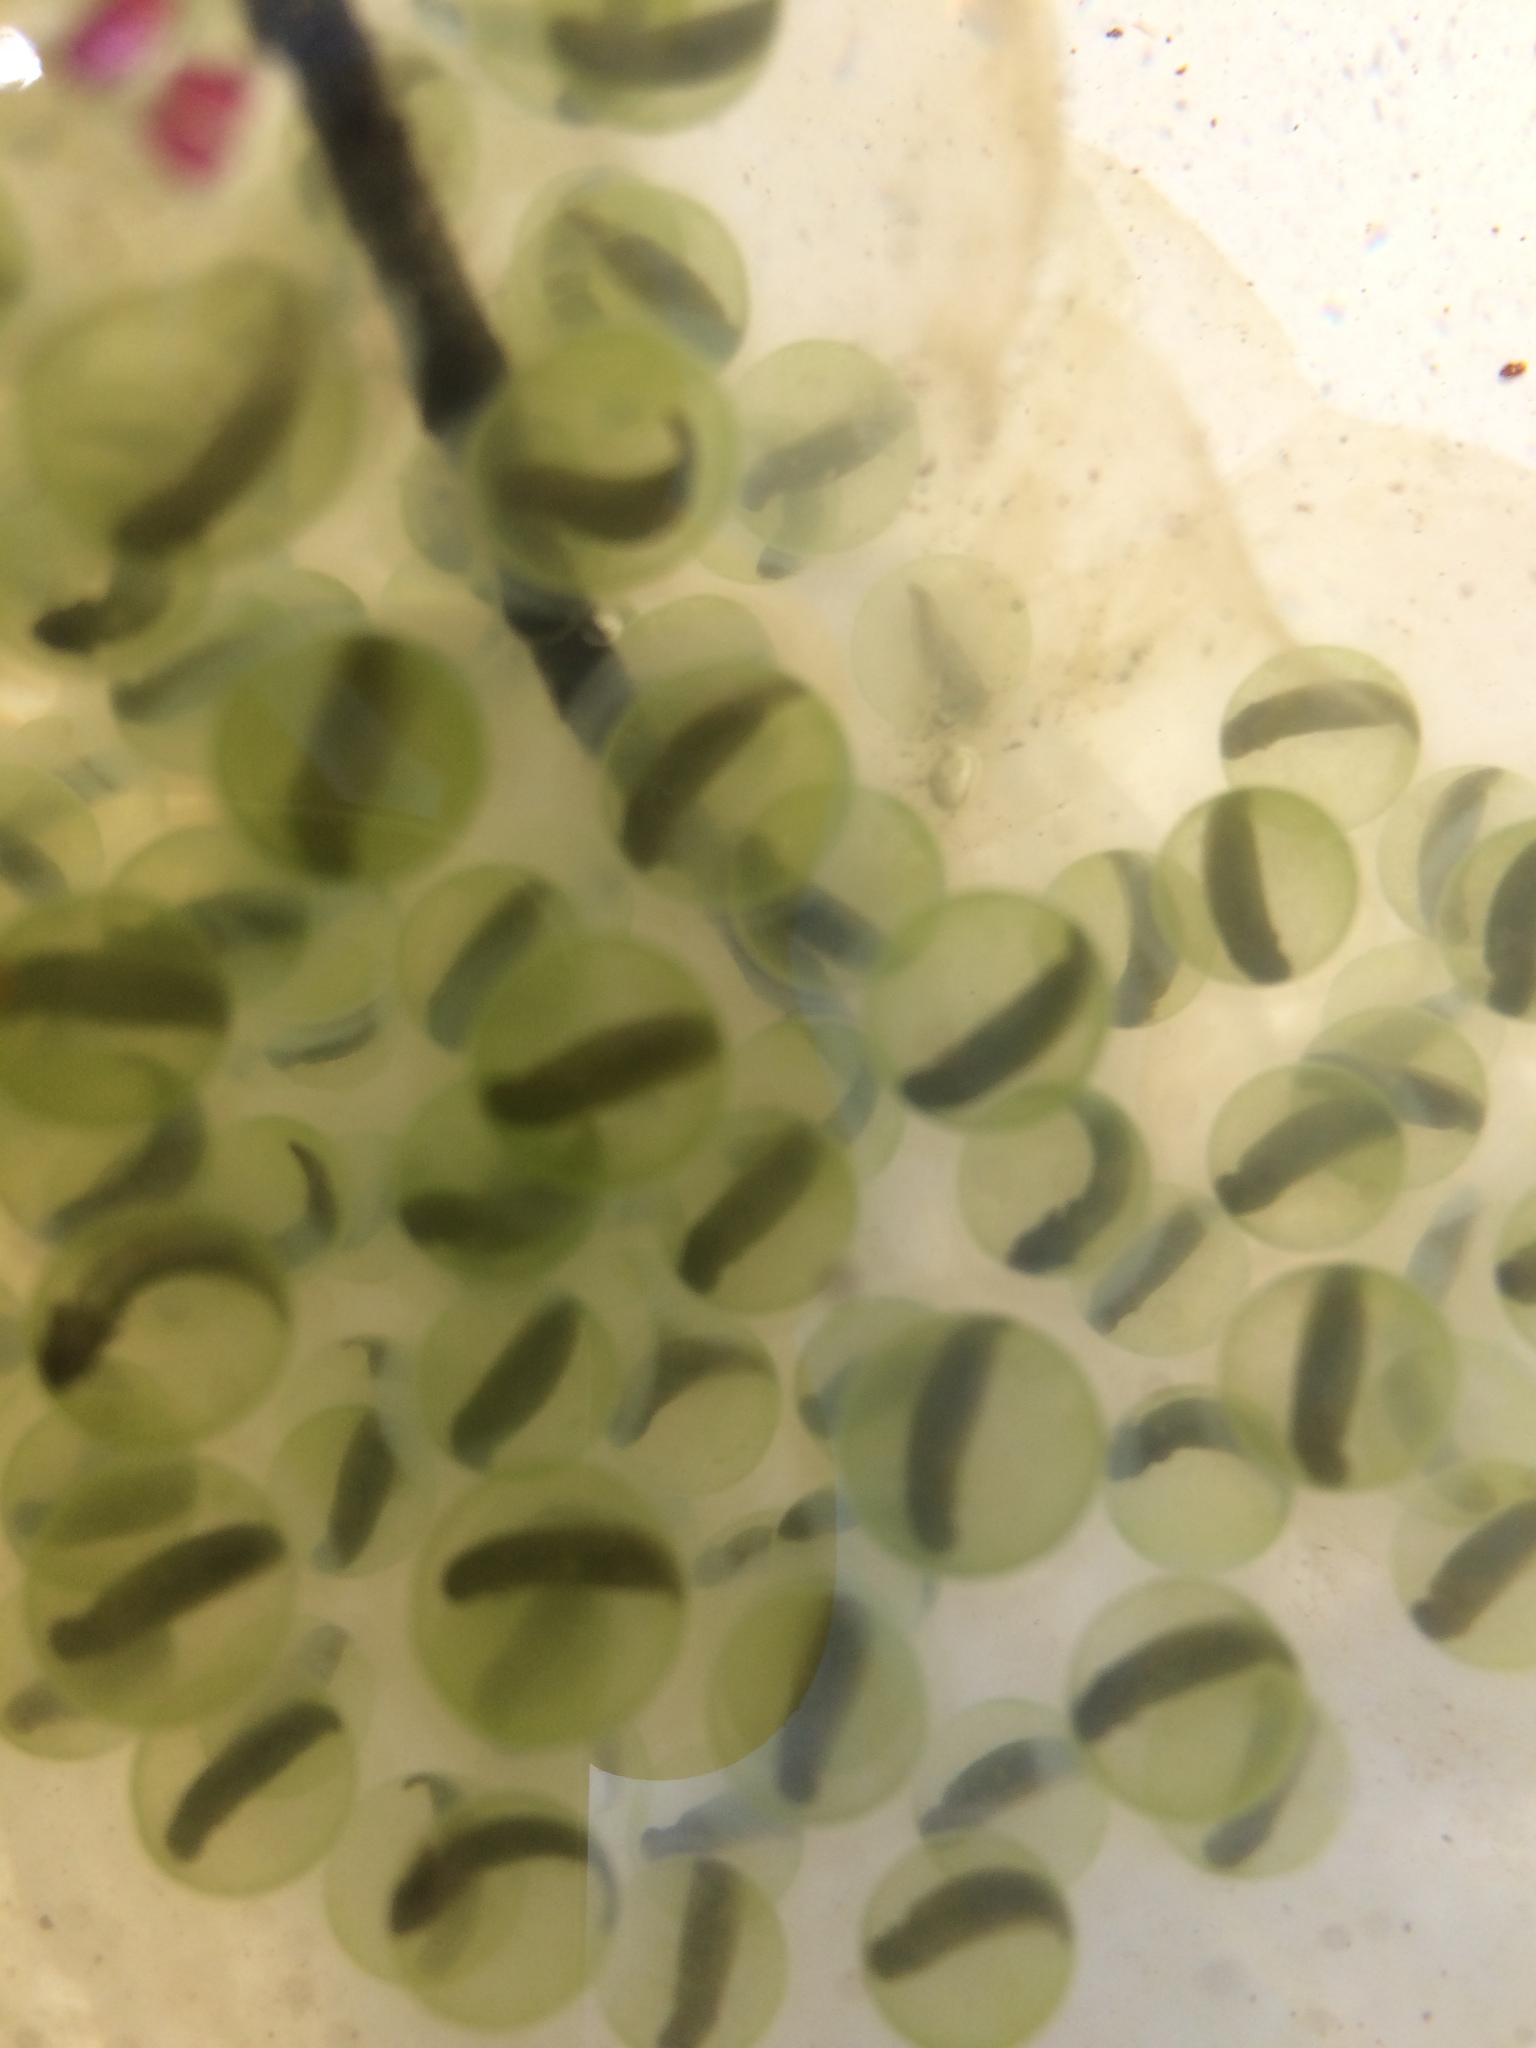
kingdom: Animalia
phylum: Chordata
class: Amphibia
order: Caudata
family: Ambystomatidae
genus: Ambystoma
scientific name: Ambystoma maculatum
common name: Spotted salamander
